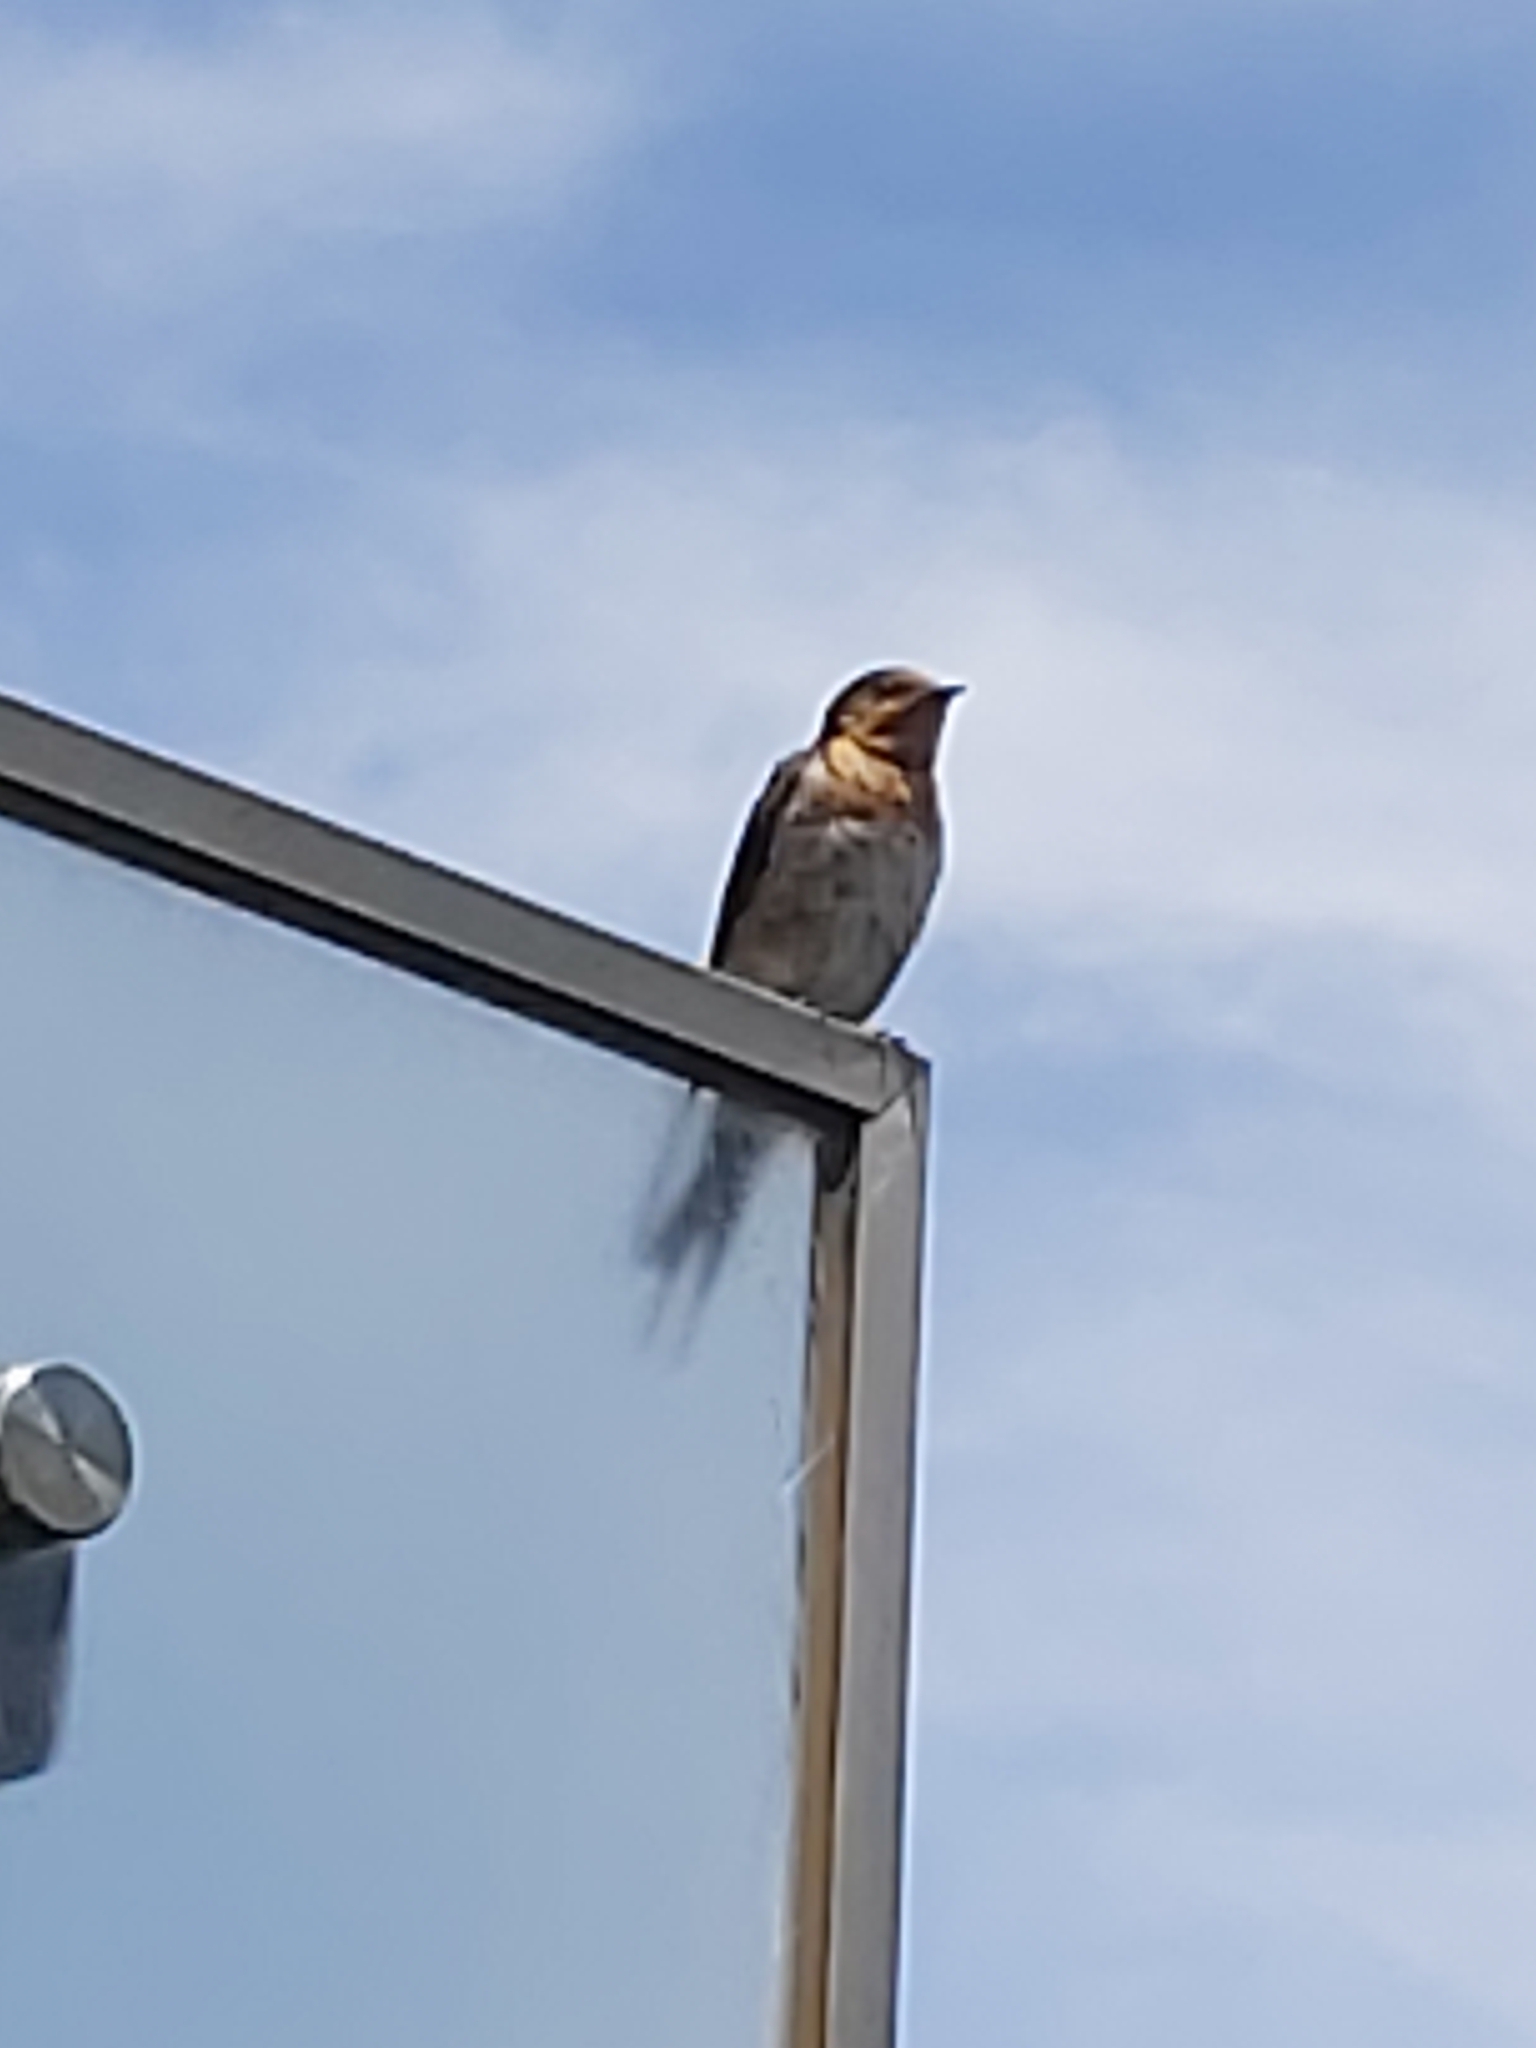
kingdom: Animalia
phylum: Chordata
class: Aves
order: Passeriformes
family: Hirundinidae
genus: Hirundo
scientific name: Hirundo neoxena
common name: Welcome swallow
